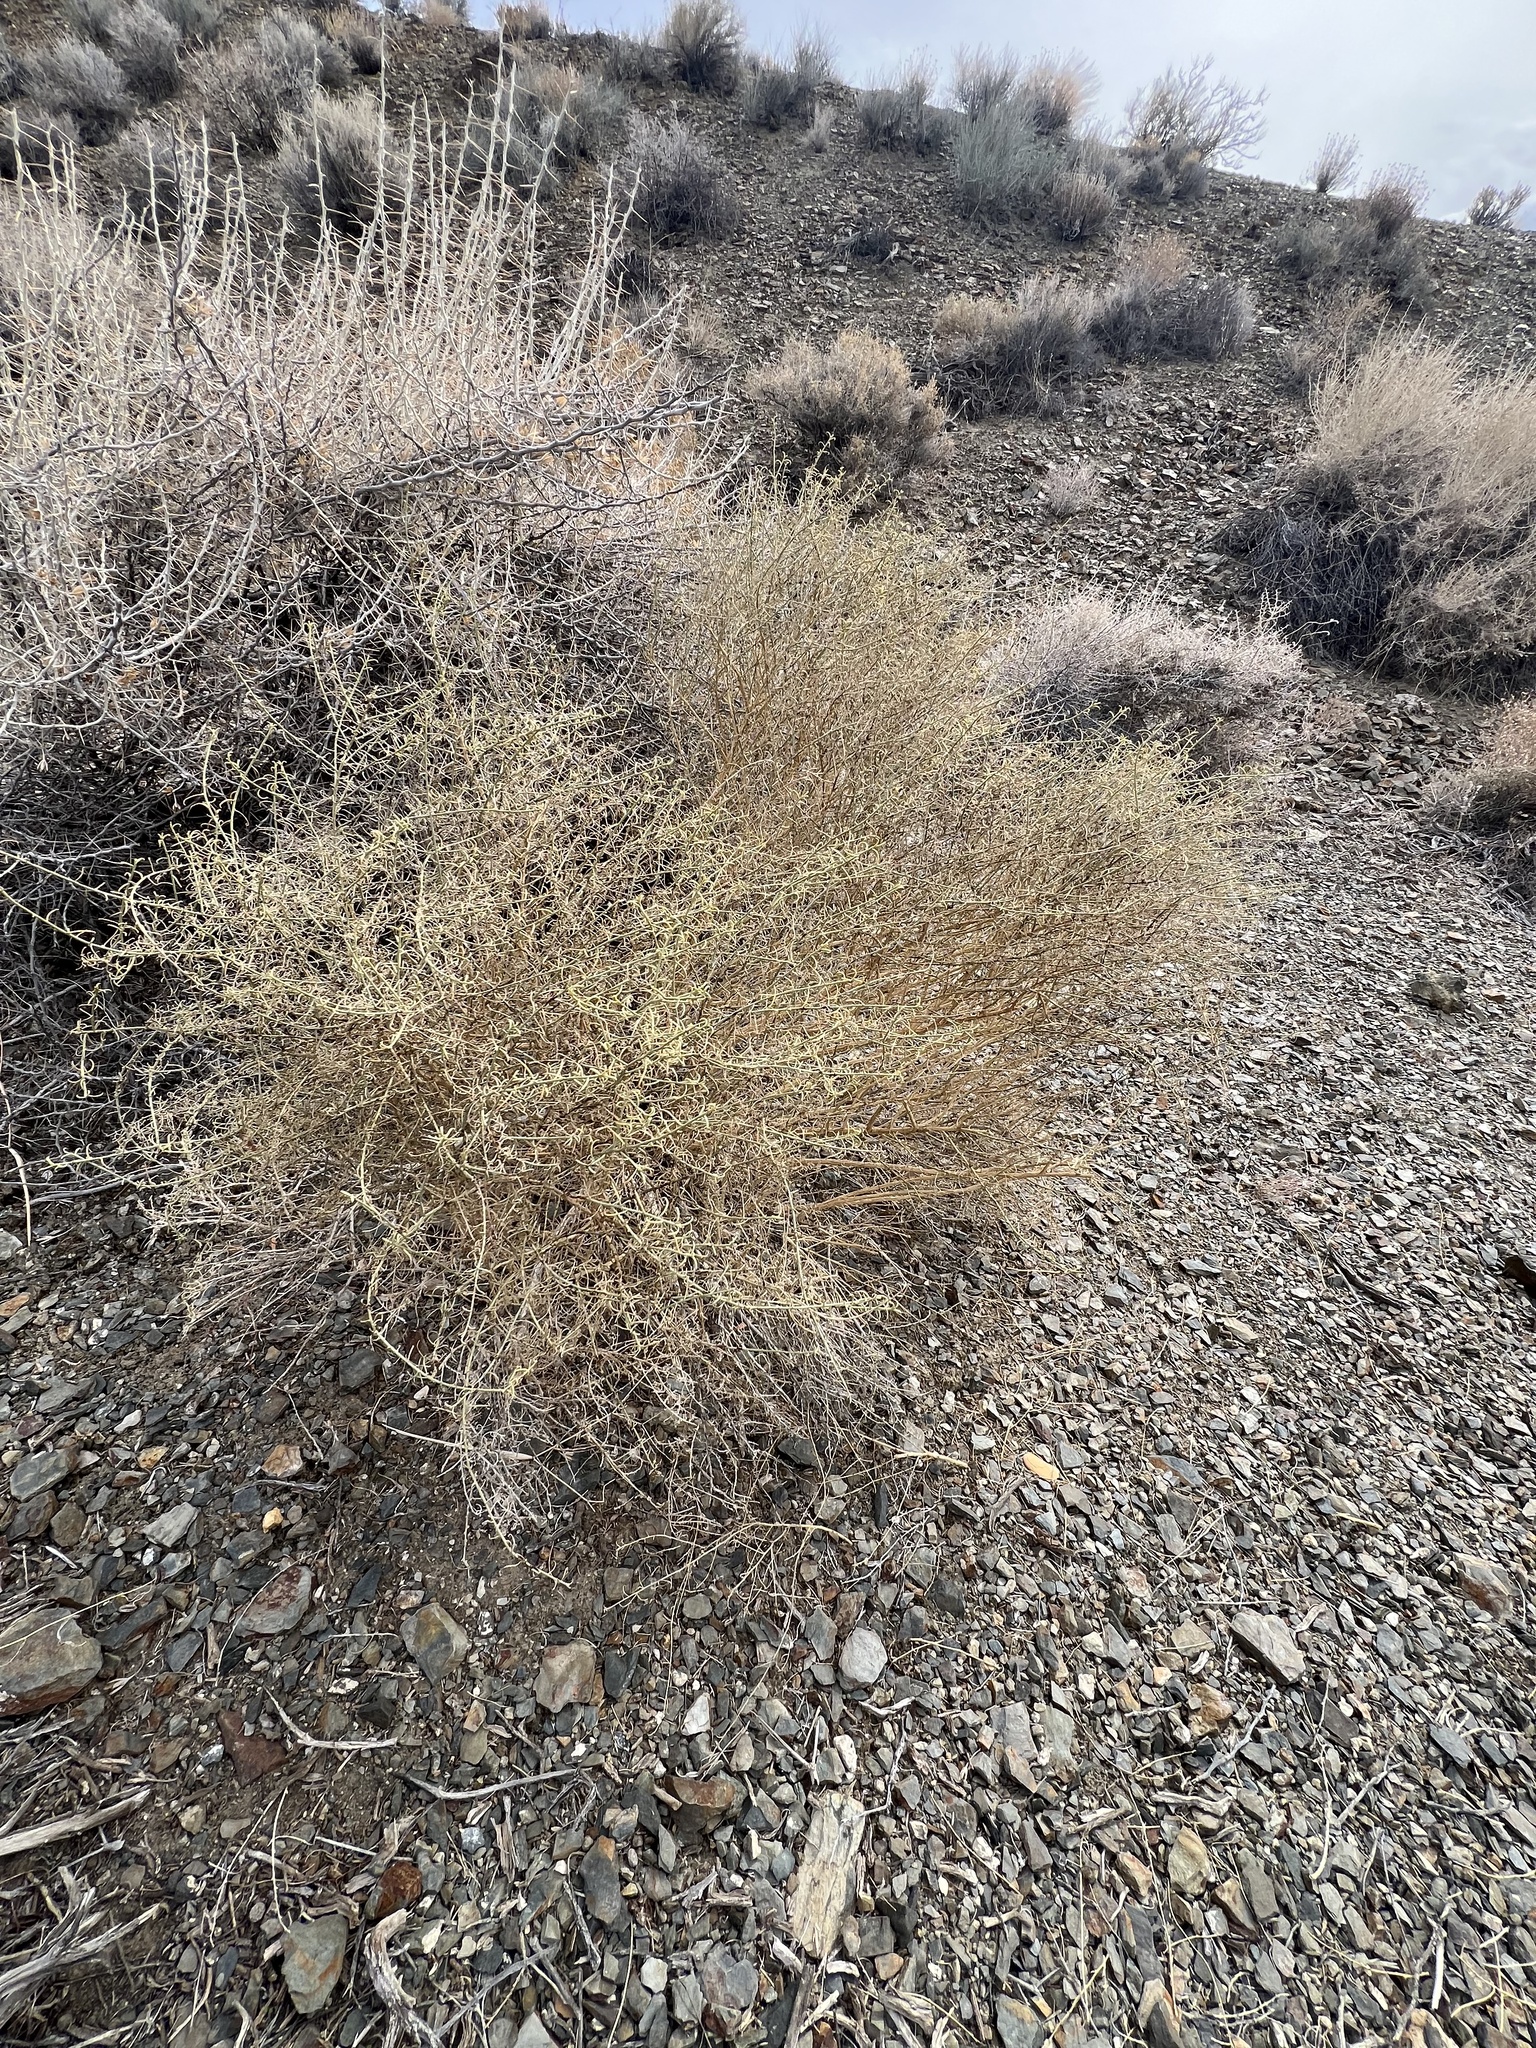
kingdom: Plantae
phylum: Tracheophyta
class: Magnoliopsida
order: Asterales
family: Asteraceae
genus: Ambrosia
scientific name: Ambrosia salsola
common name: Burrobrush
